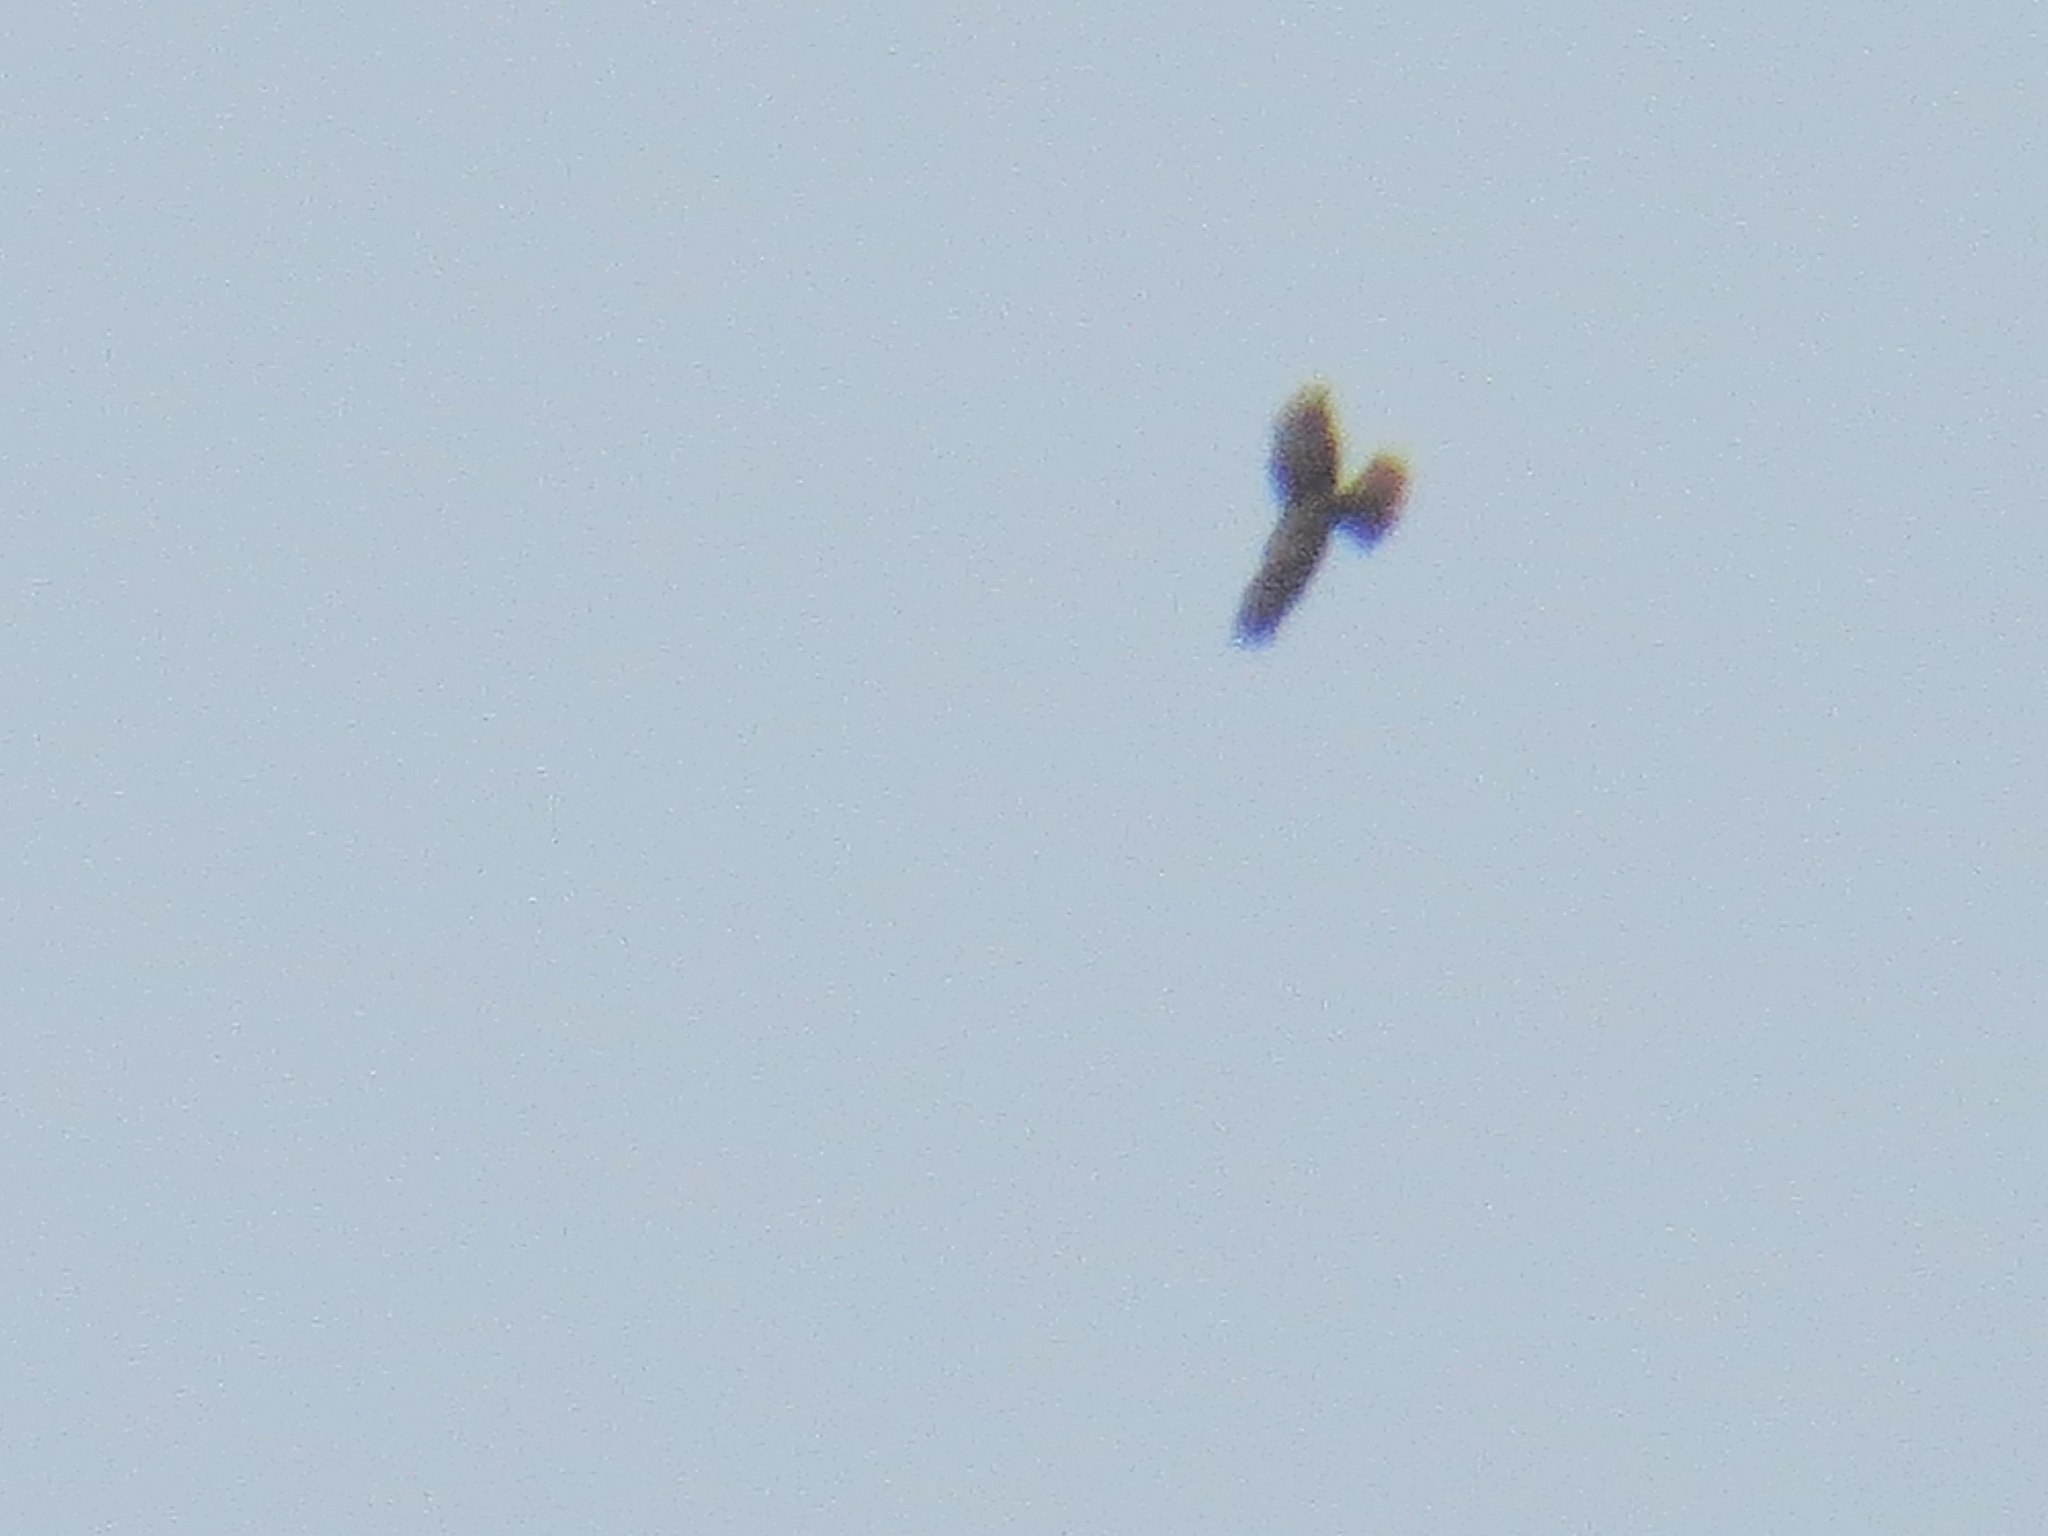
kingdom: Animalia
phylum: Chordata
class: Aves
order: Accipitriformes
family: Accipitridae
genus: Circus
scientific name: Circus aeruginosus
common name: Western marsh harrier
